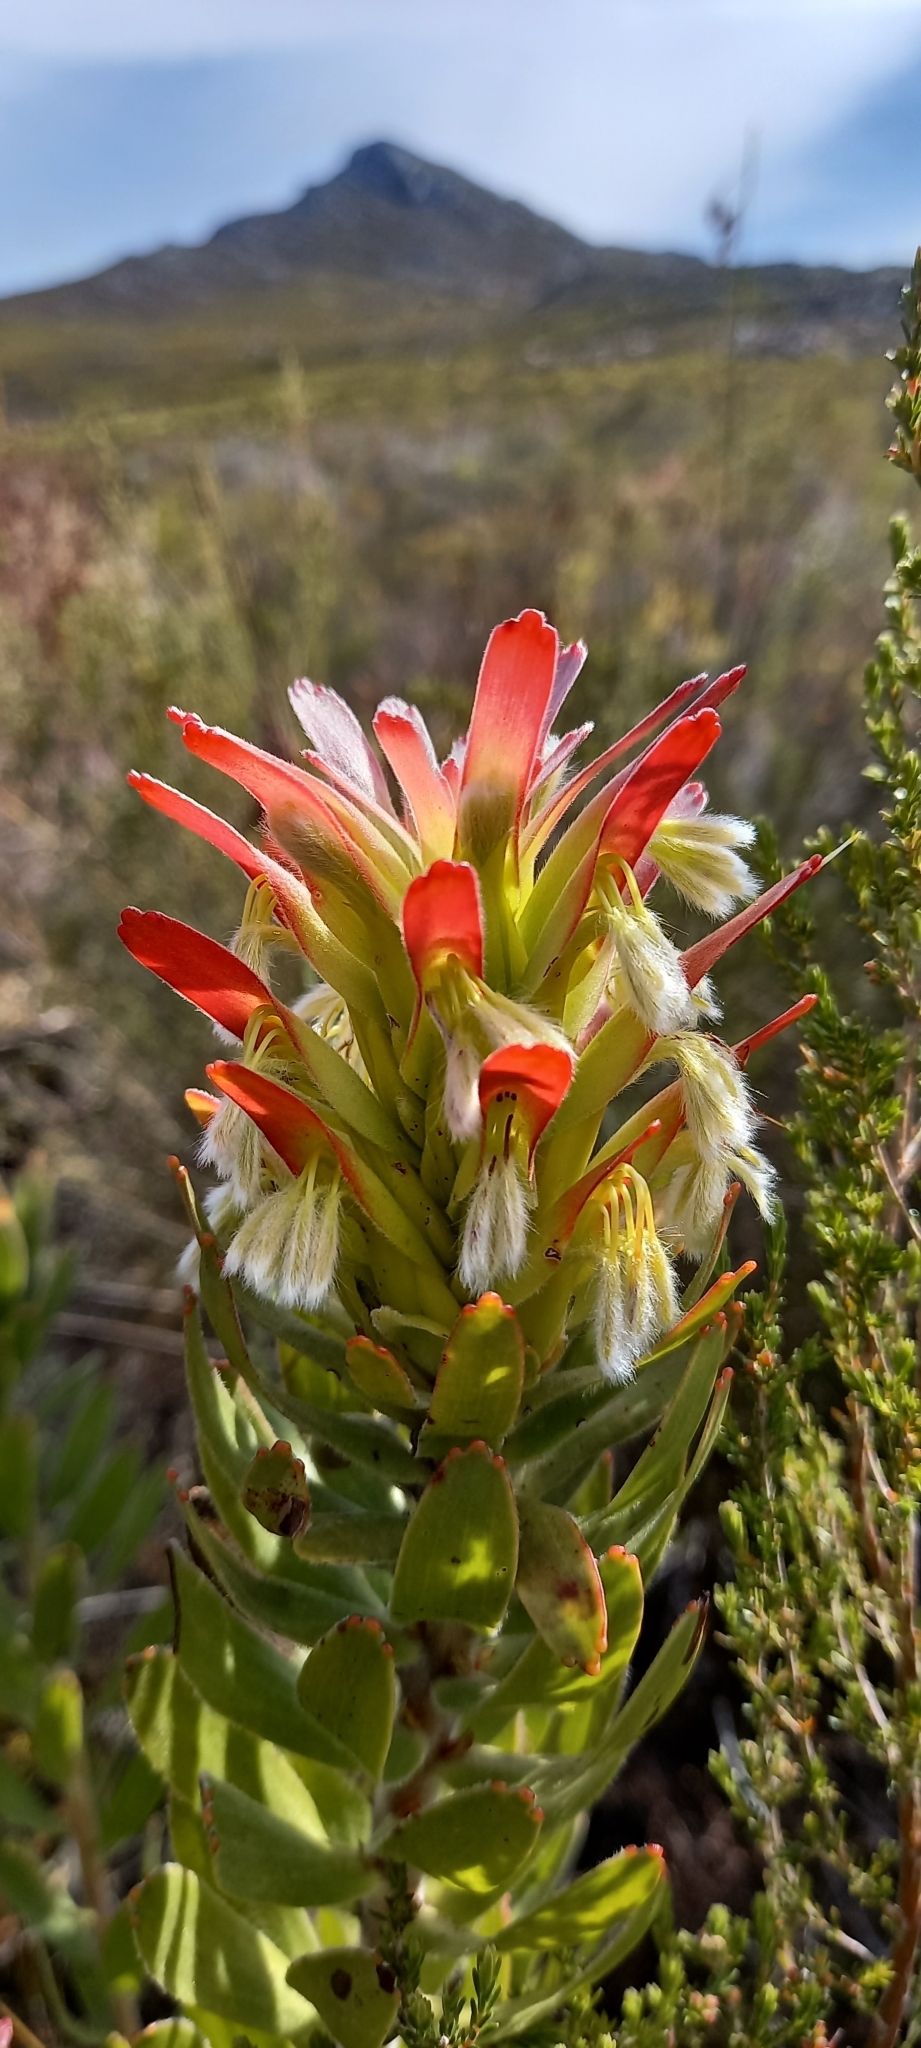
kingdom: Plantae
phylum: Tracheophyta
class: Magnoliopsida
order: Proteales
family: Proteaceae
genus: Mimetes
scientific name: Mimetes cucullatus
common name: Common pagoda
